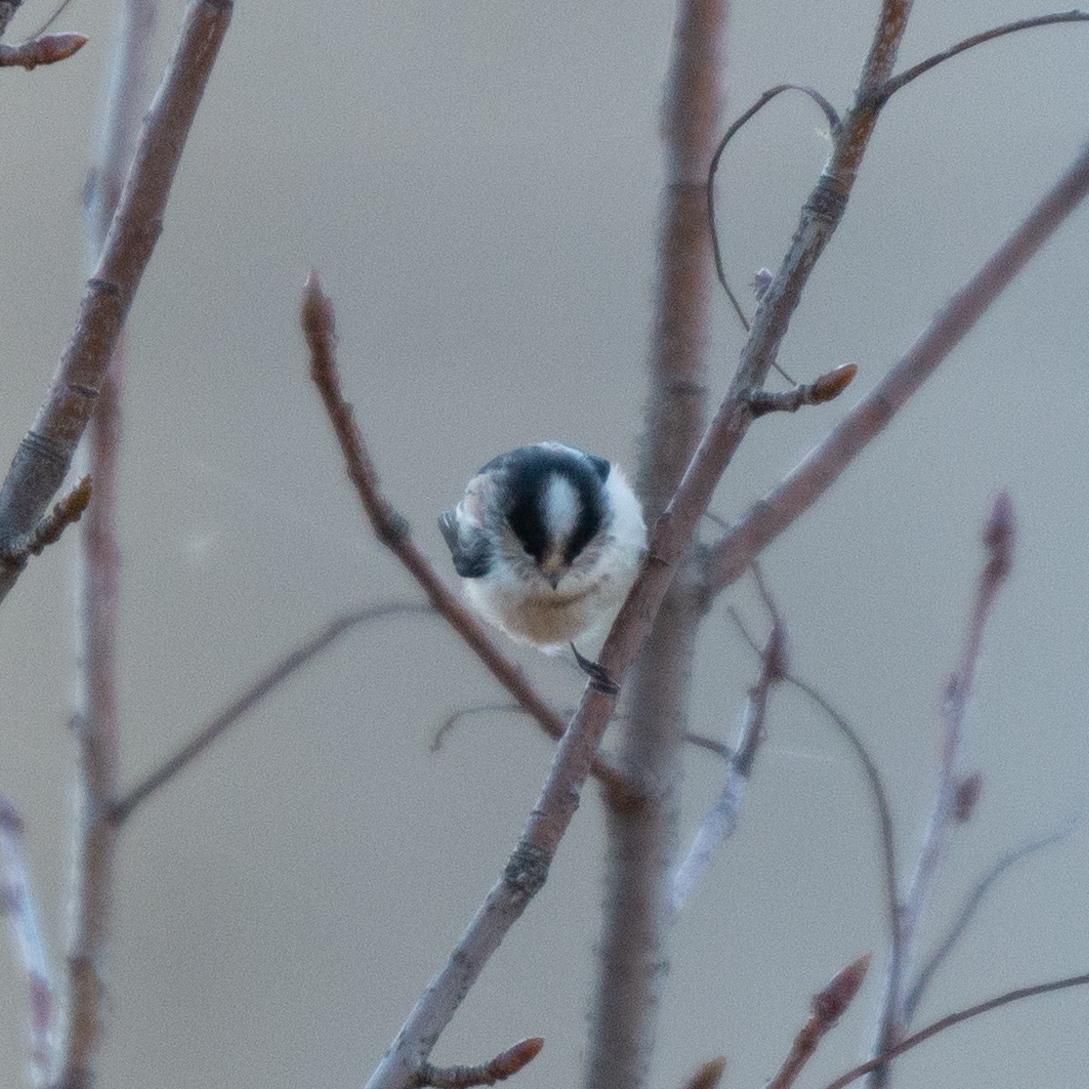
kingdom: Animalia
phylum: Chordata
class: Aves
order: Passeriformes
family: Aegithalidae
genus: Aegithalos
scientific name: Aegithalos caudatus
